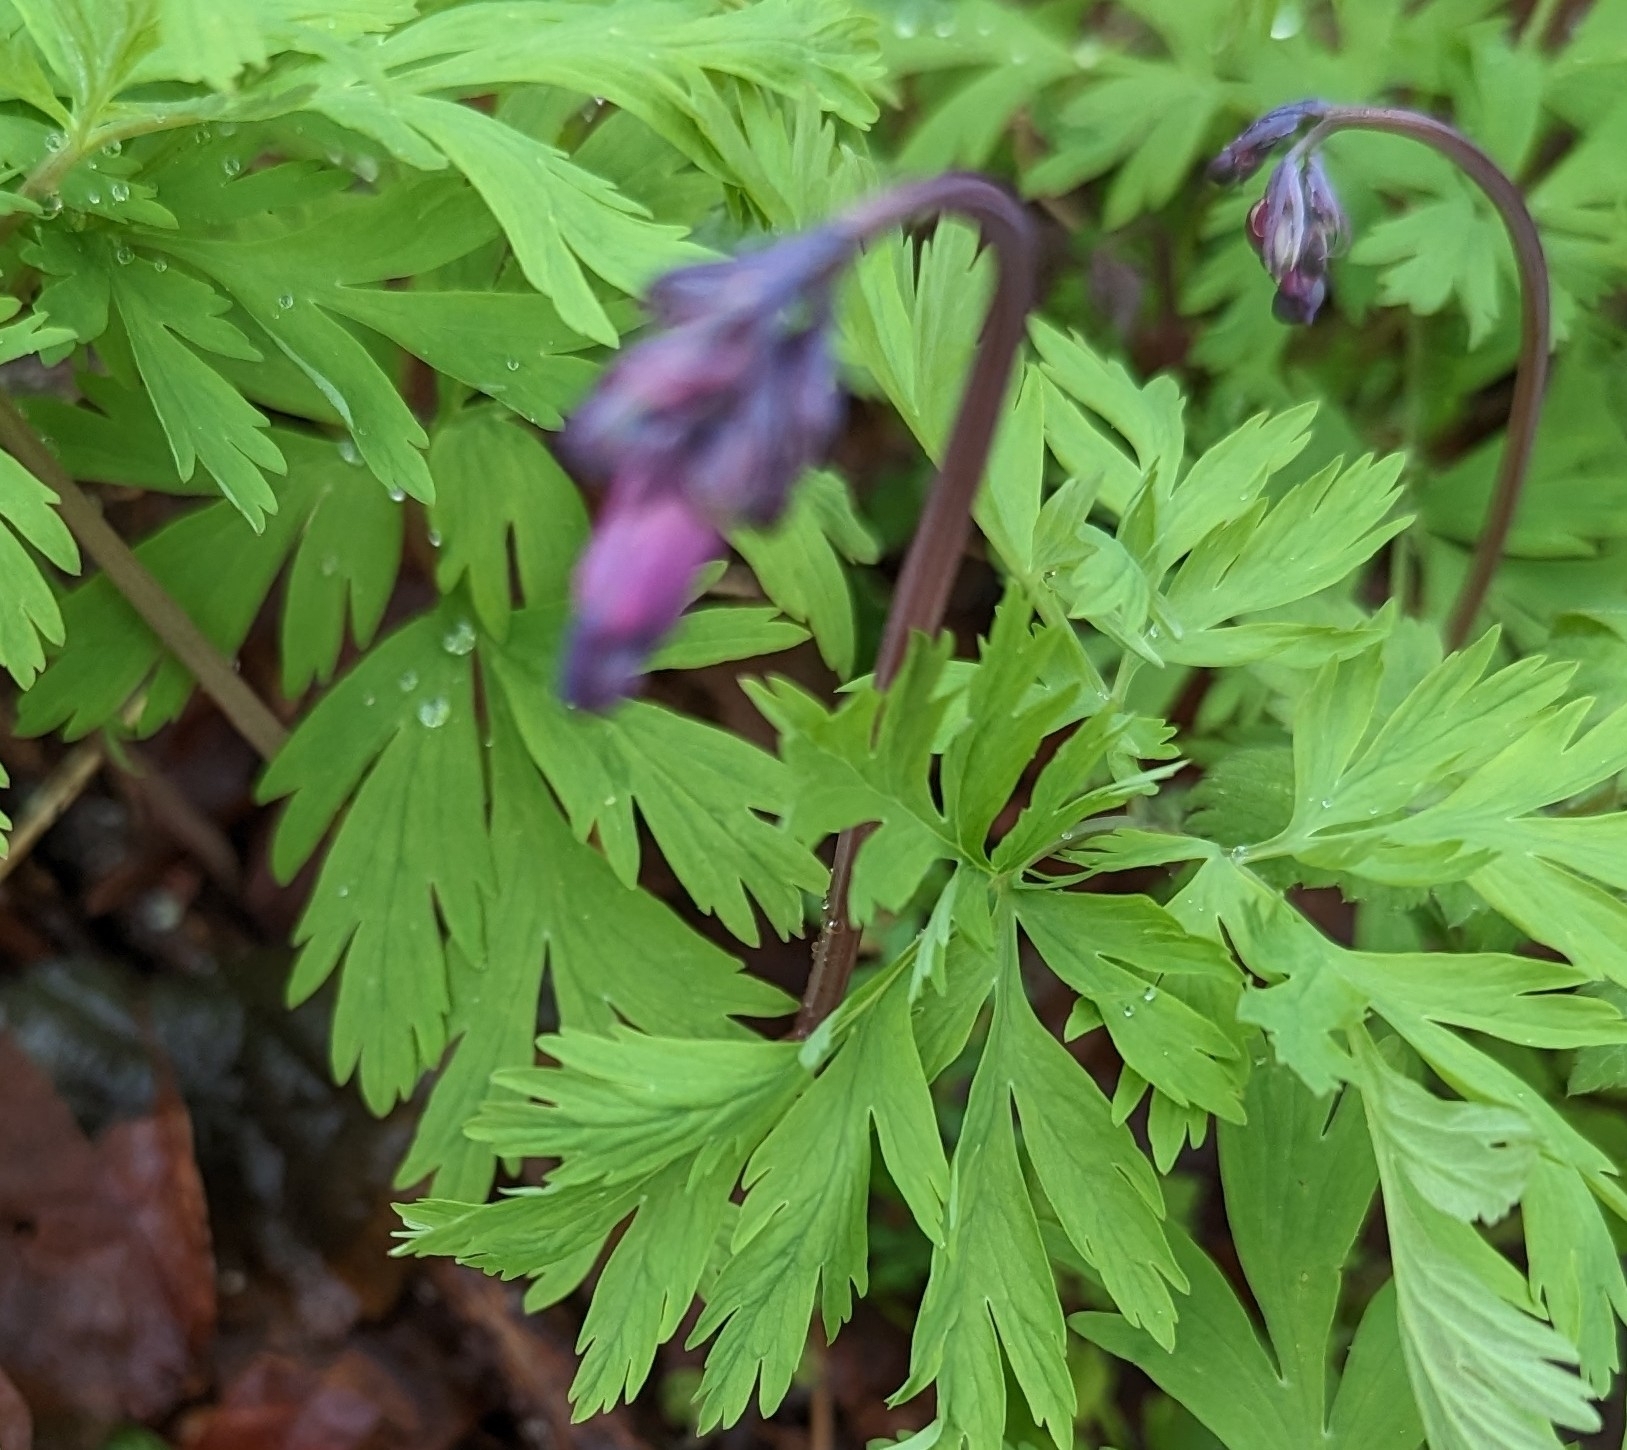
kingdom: Plantae
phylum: Tracheophyta
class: Magnoliopsida
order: Ranunculales
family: Papaveraceae
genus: Dicentra
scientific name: Dicentra formosa
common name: Bleeding-heart
